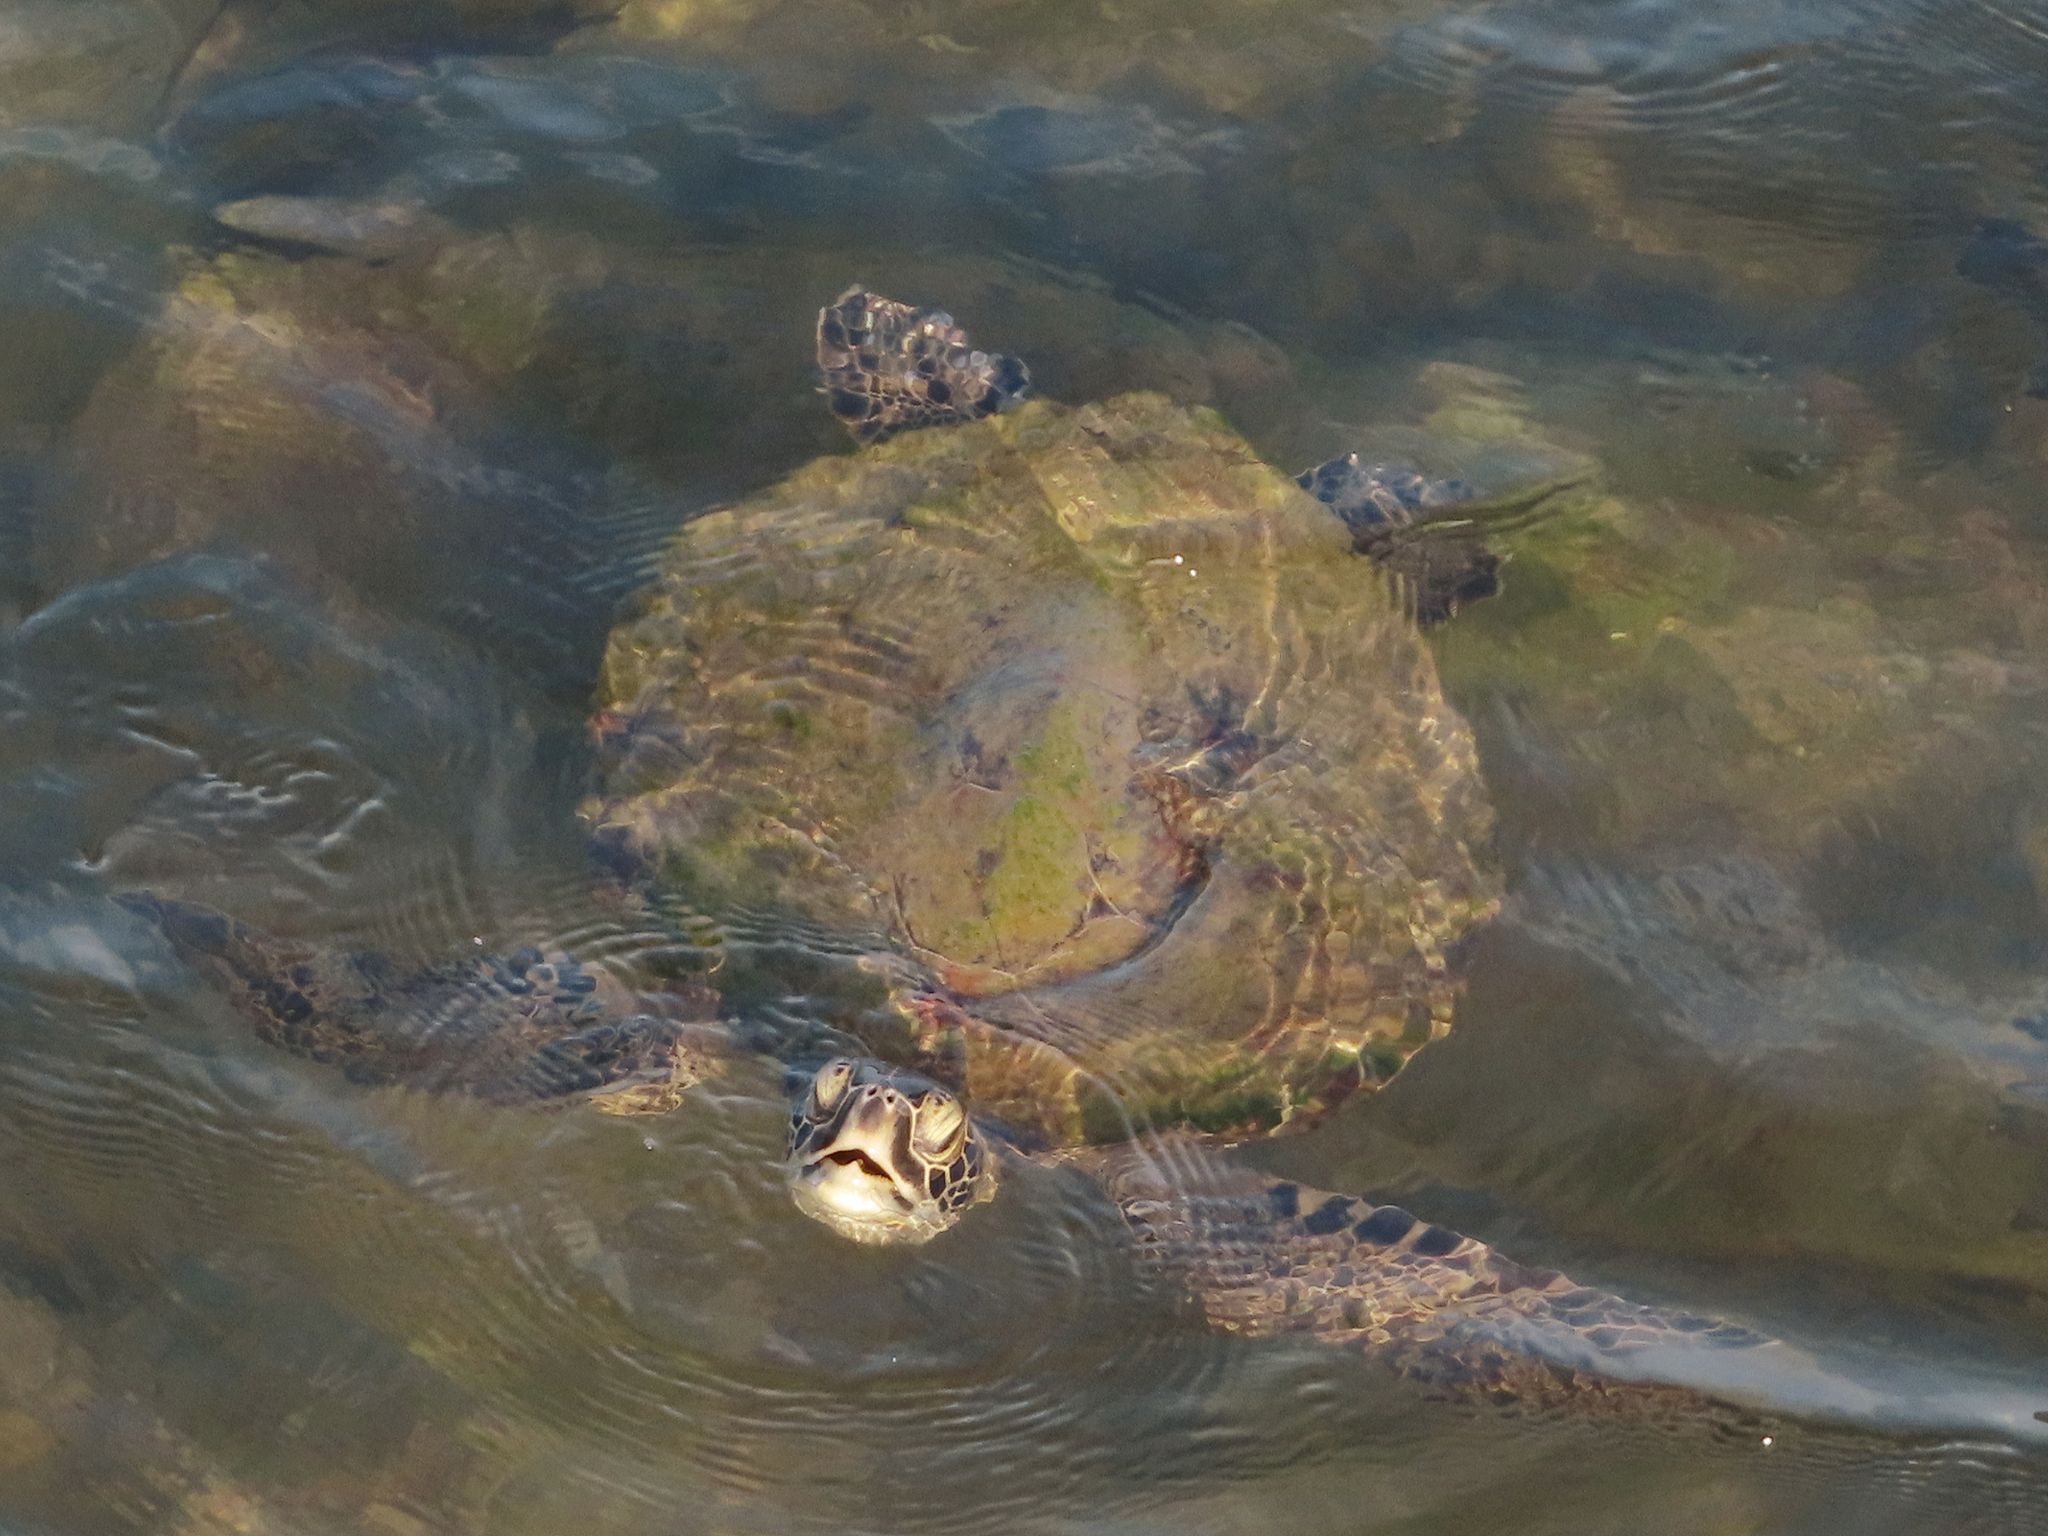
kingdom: Animalia
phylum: Chordata
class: Testudines
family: Cheloniidae
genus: Chelonia
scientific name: Chelonia mydas
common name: Green turtle
